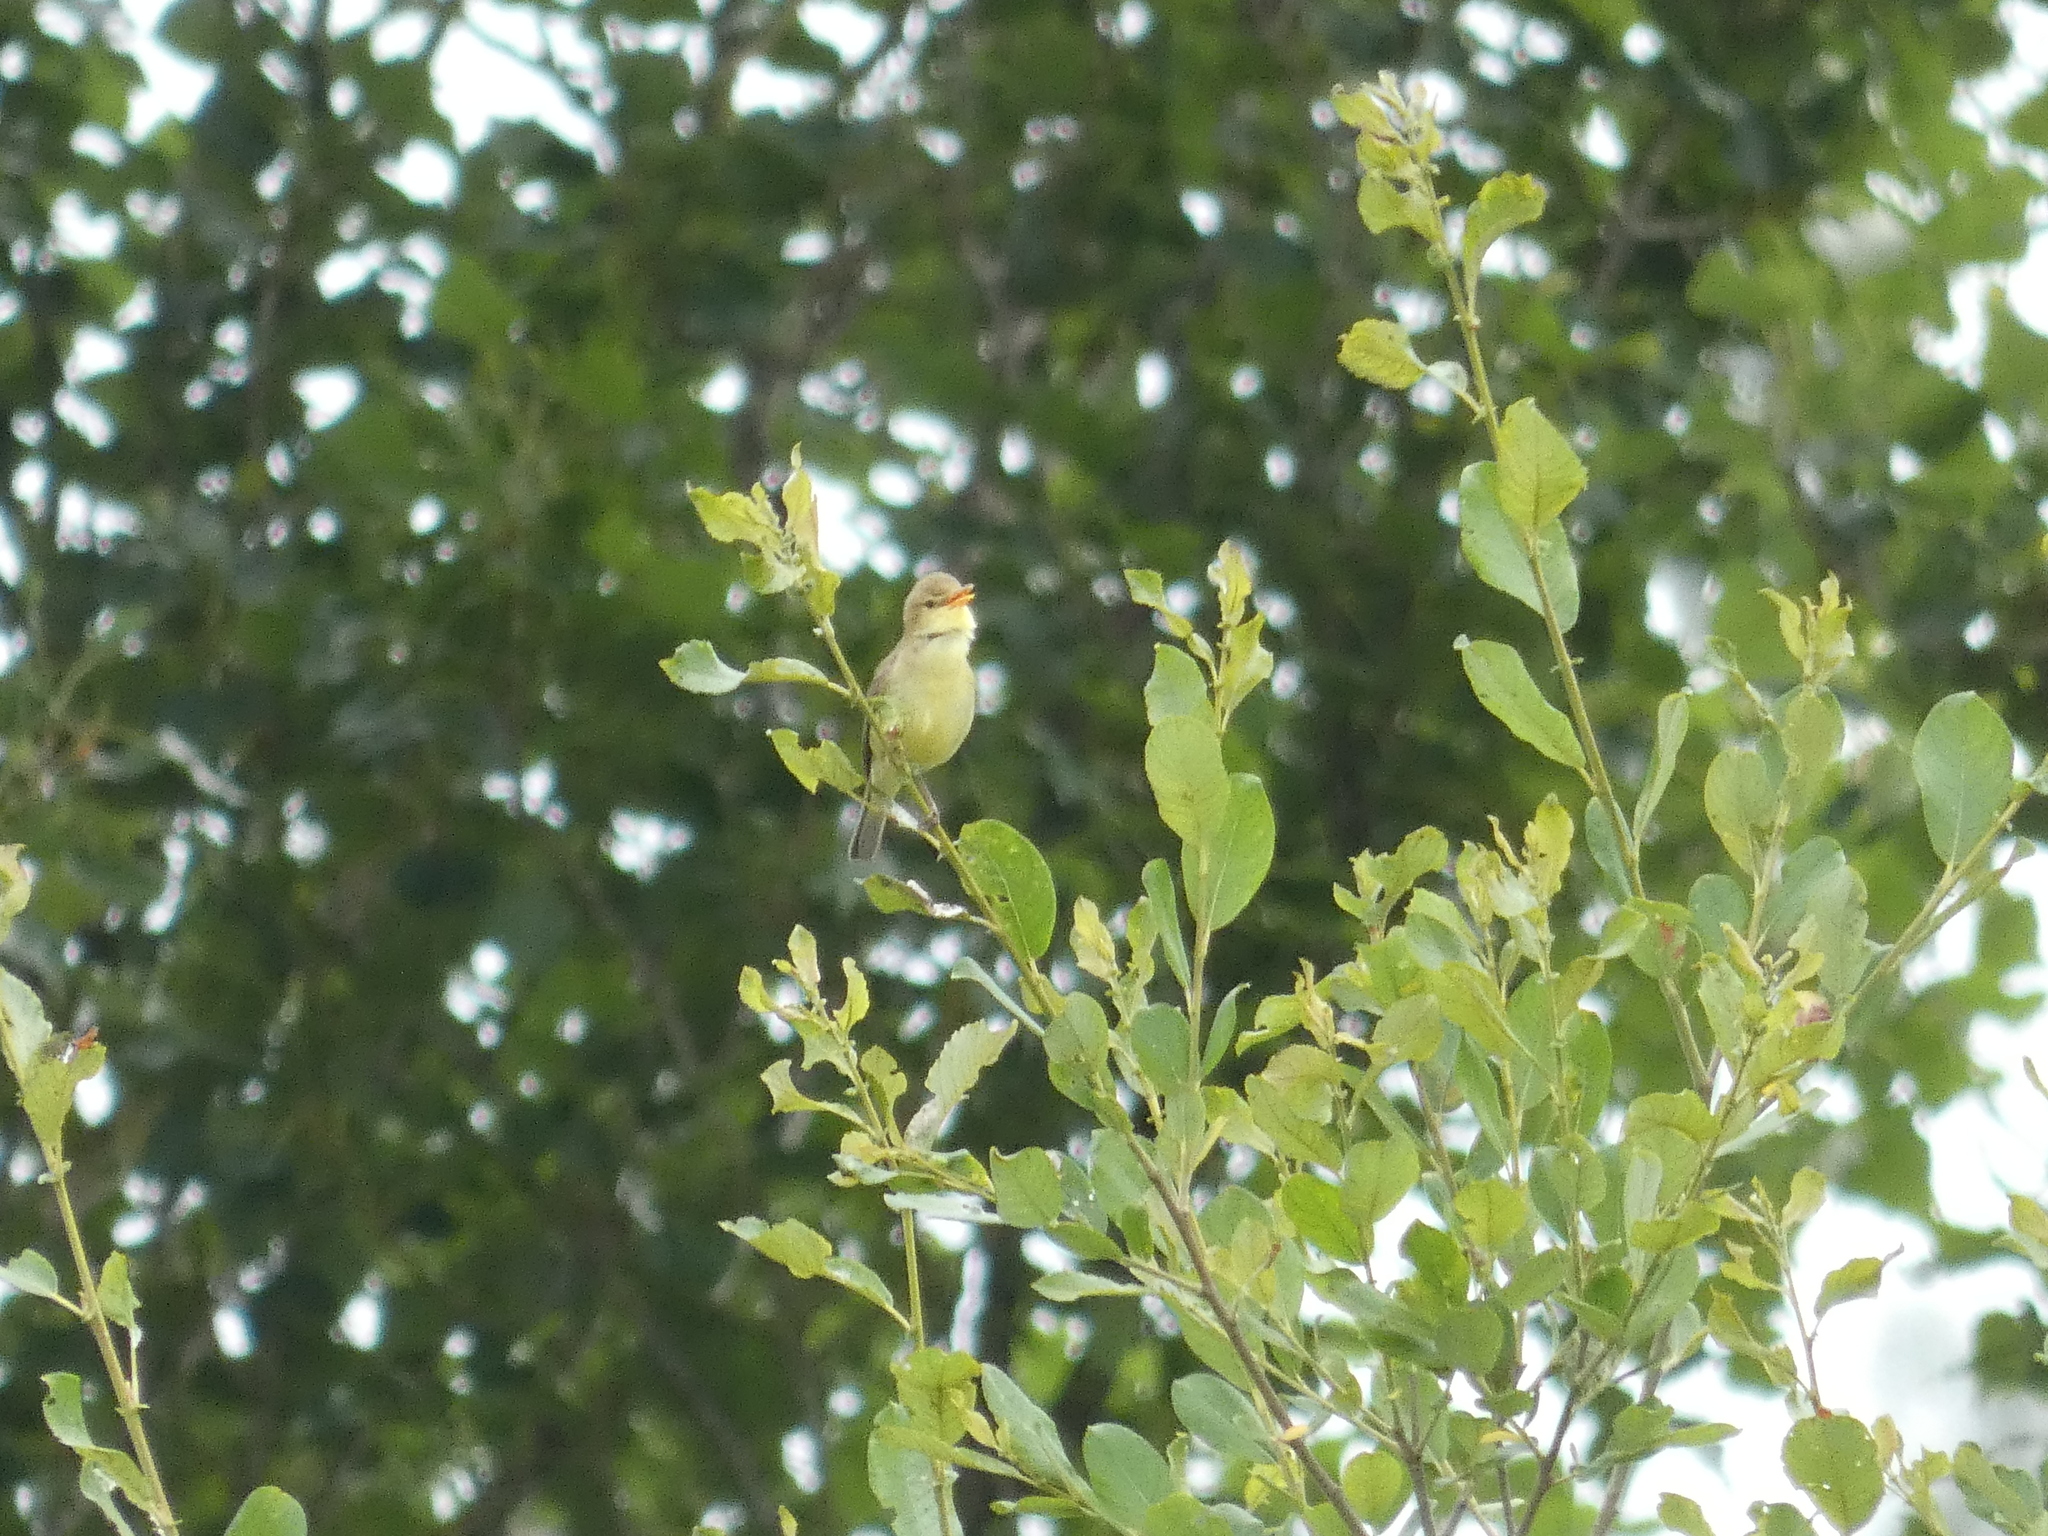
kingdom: Animalia
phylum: Chordata
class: Aves
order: Passeriformes
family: Acrocephalidae
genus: Hippolais
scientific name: Hippolais polyglotta
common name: Melodious warbler
